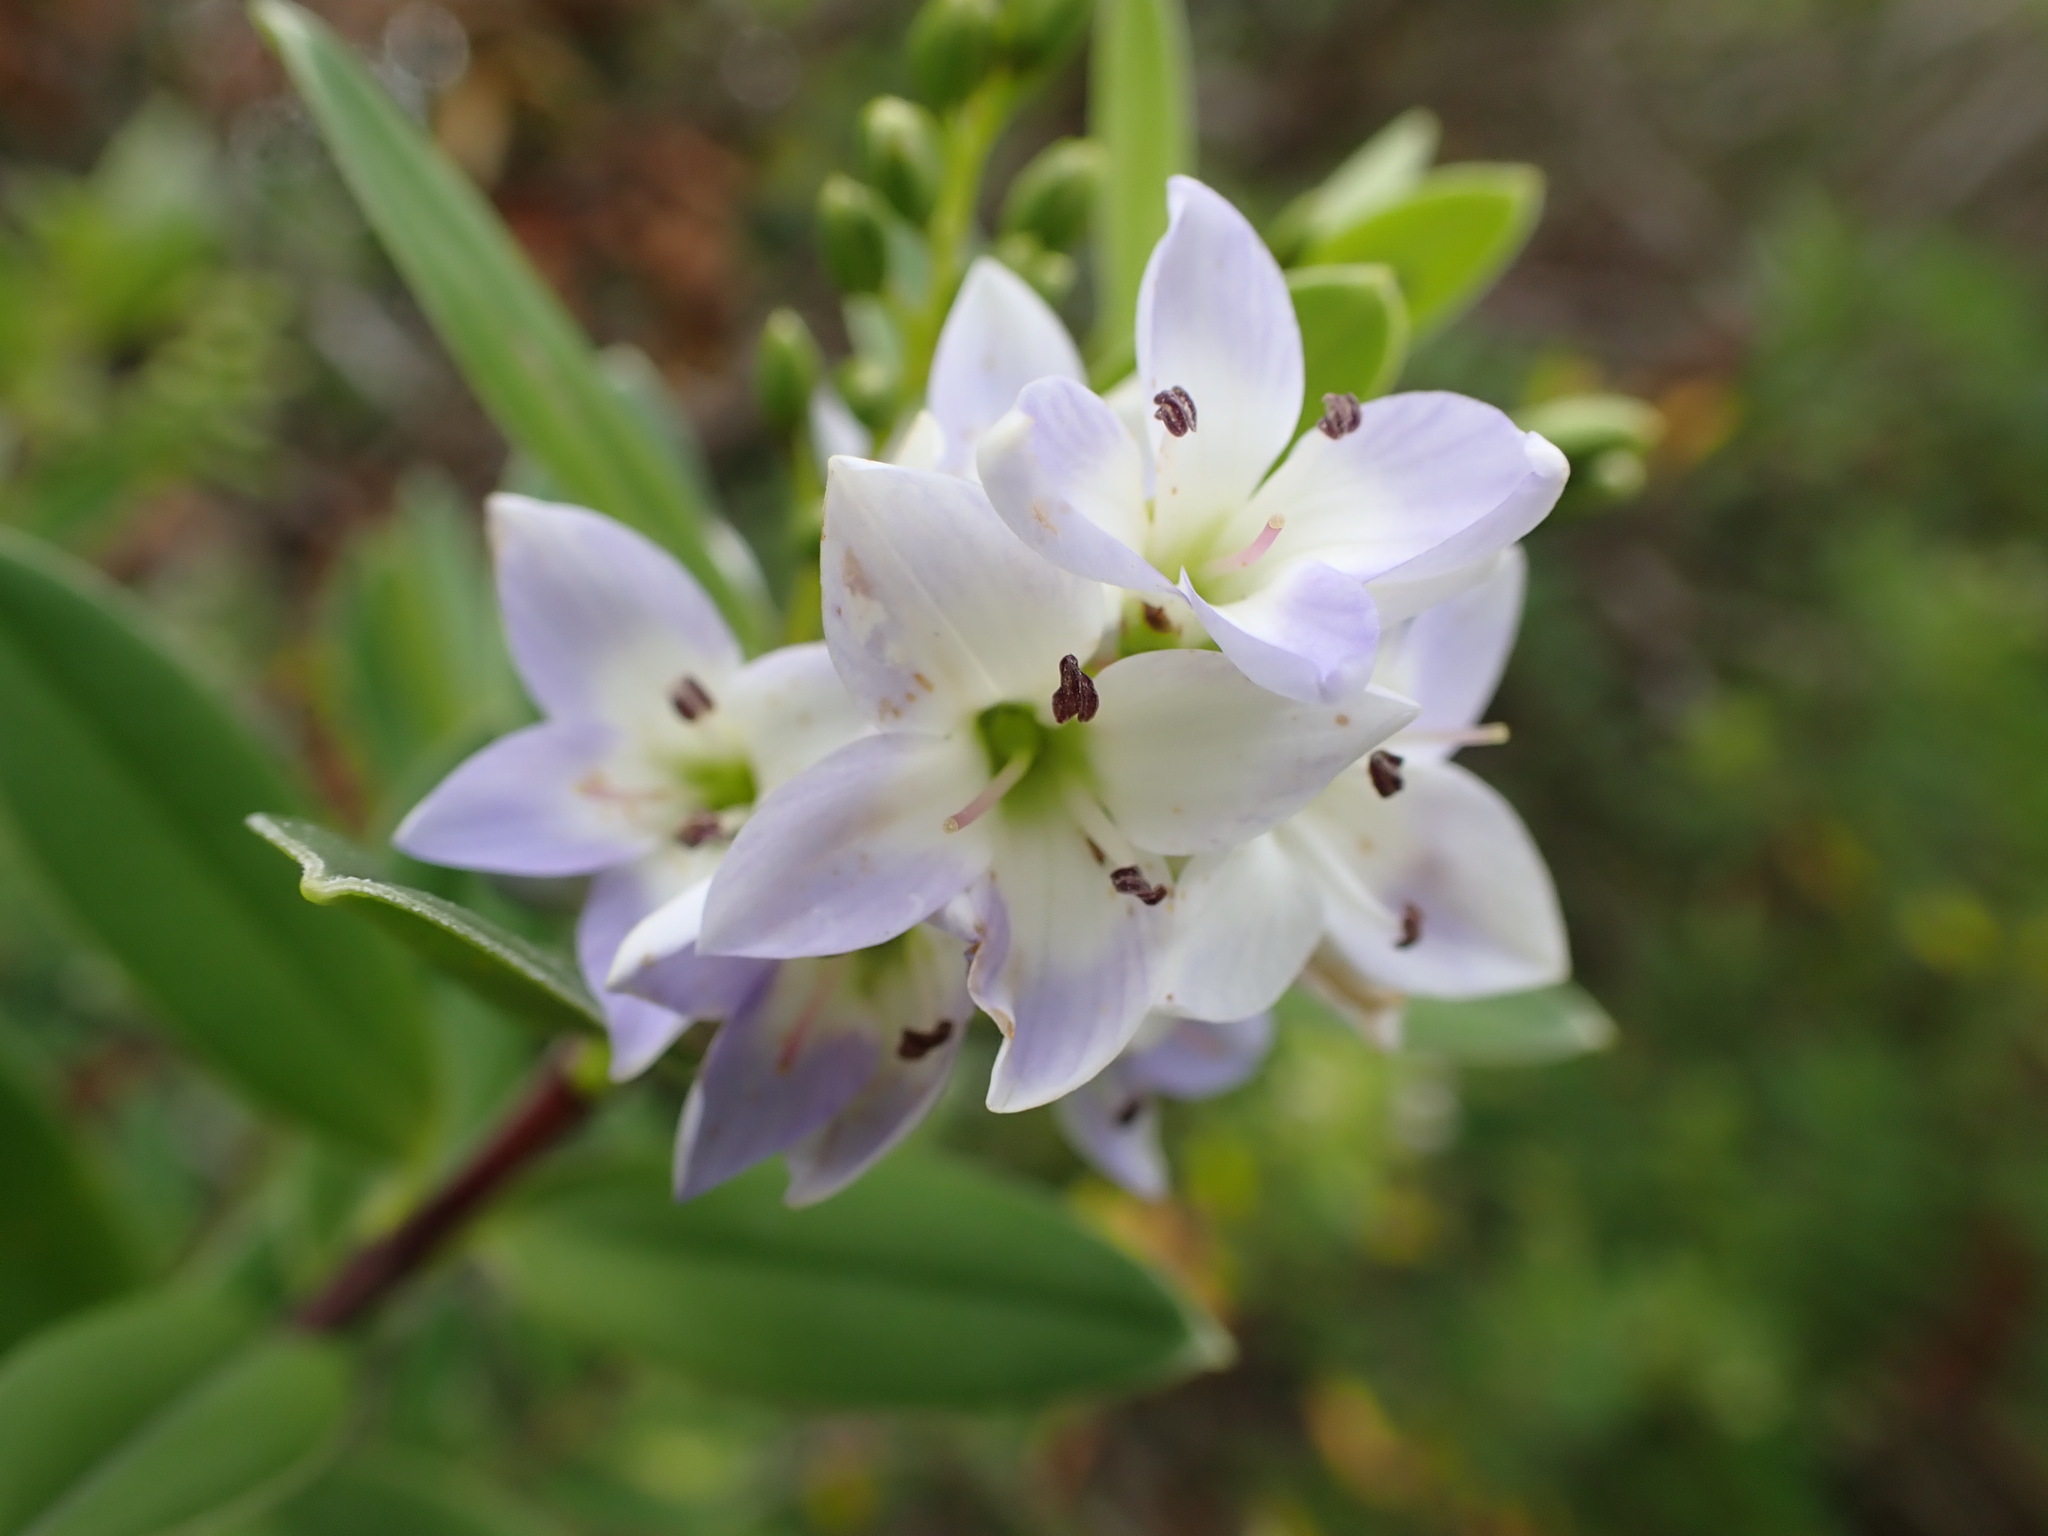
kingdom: Plantae
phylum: Tracheophyta
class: Magnoliopsida
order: Lamiales
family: Plantaginaceae
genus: Veronica
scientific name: Veronica elliptica
